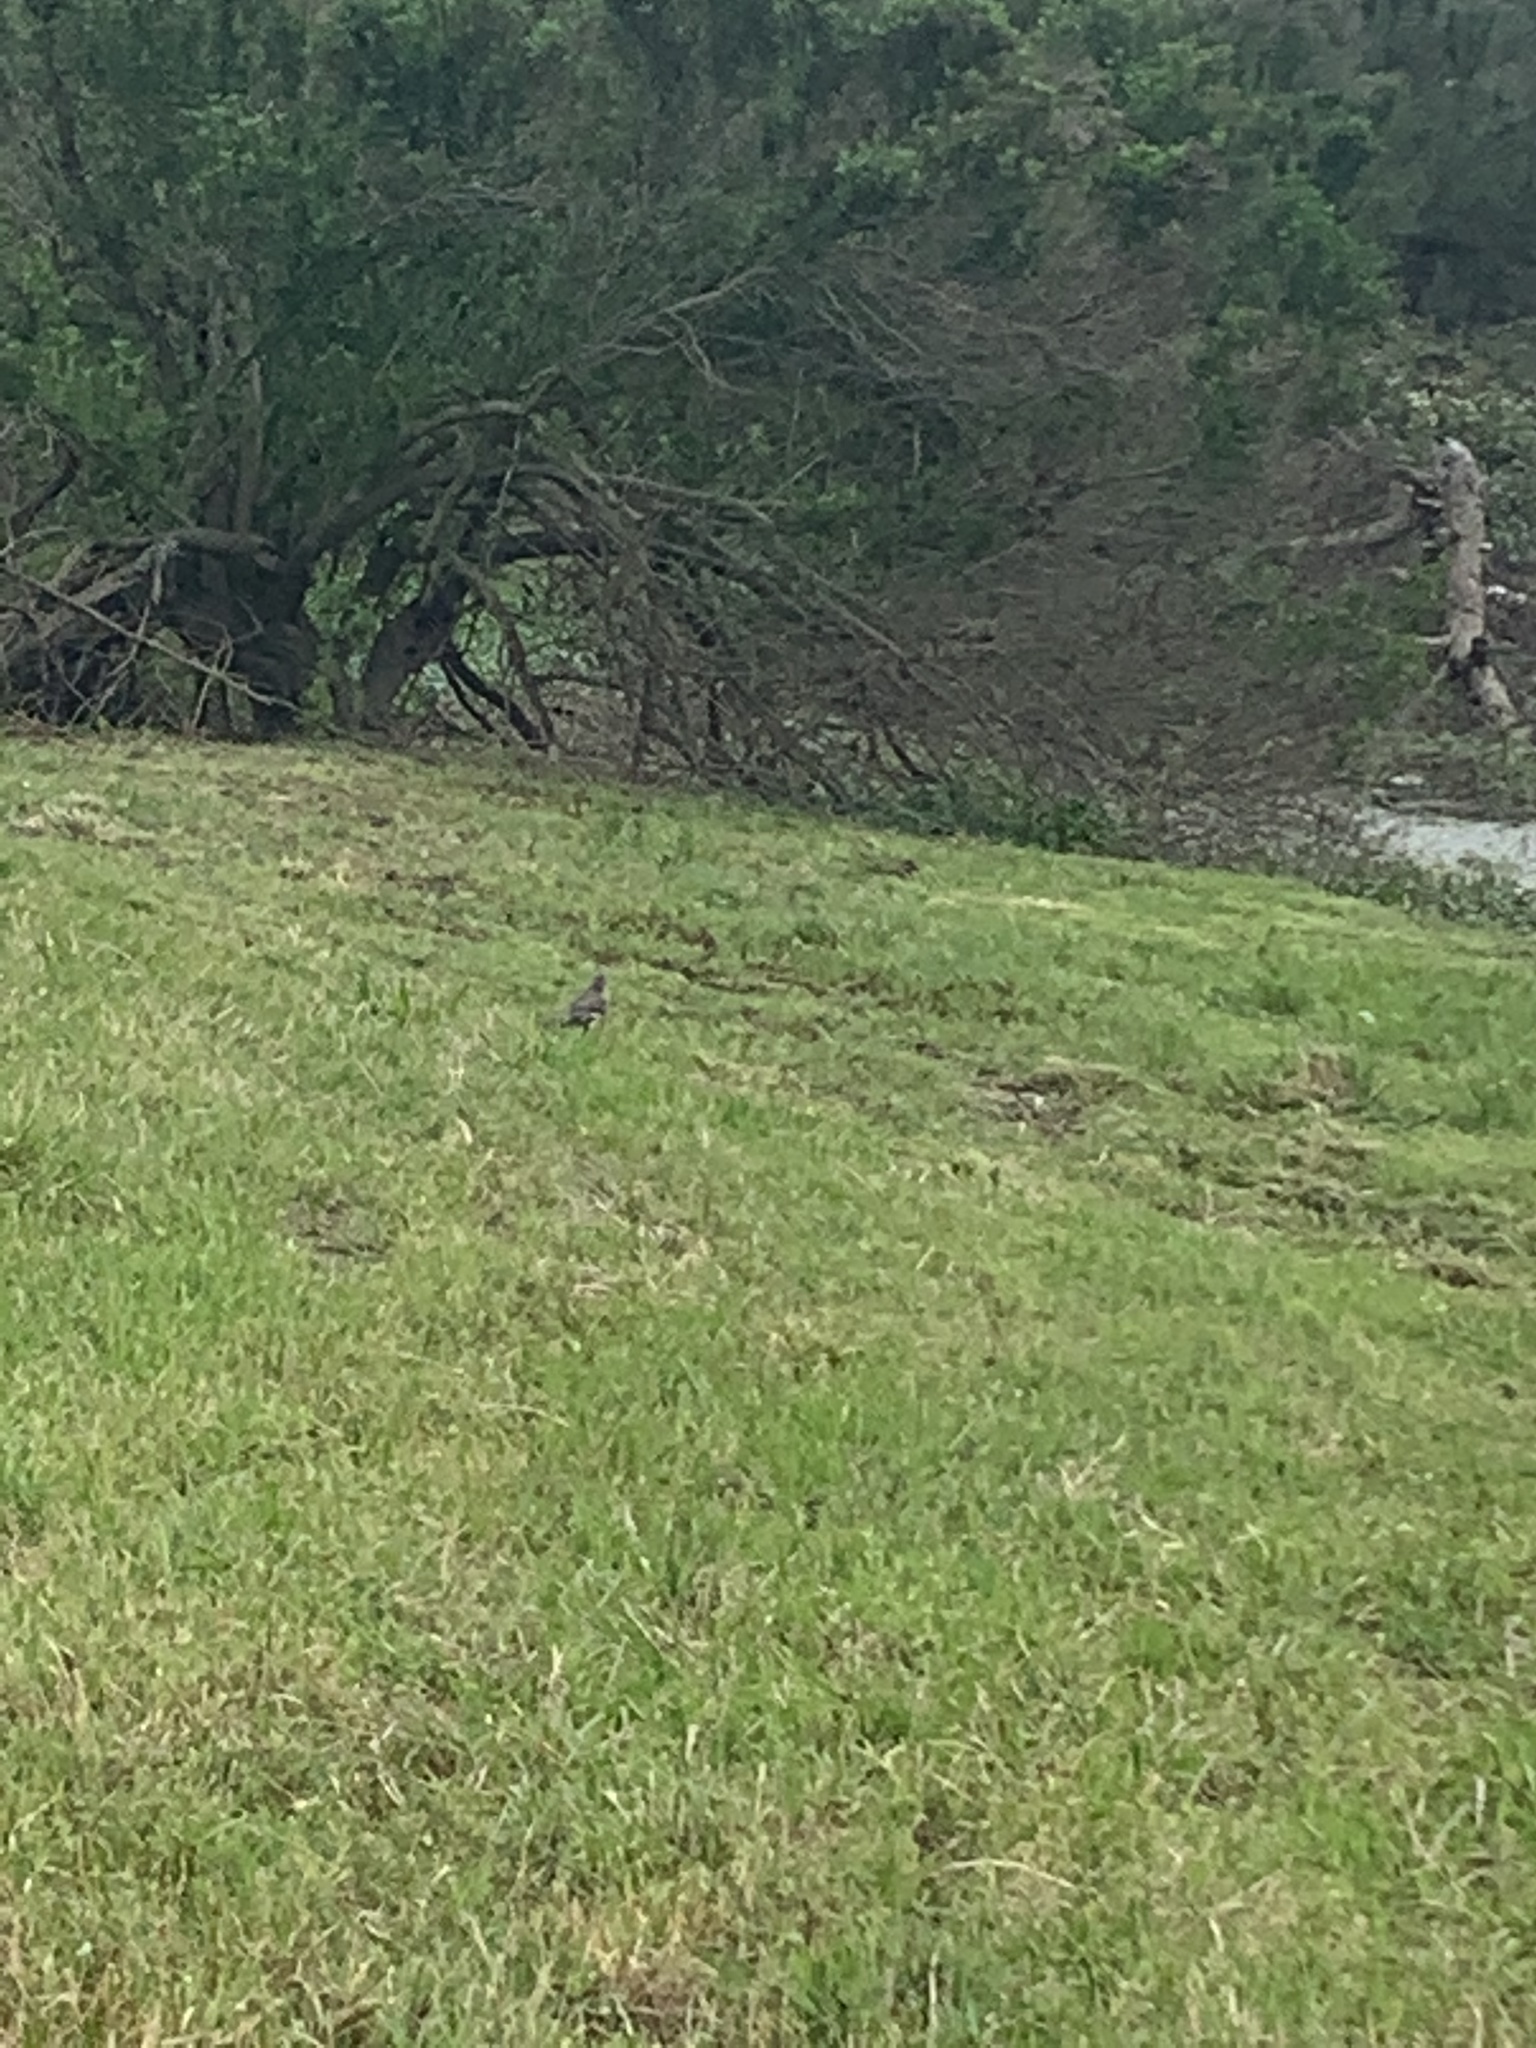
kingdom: Animalia
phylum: Chordata
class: Aves
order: Passeriformes
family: Turdidae
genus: Turdus
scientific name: Turdus migratorius
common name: American robin
